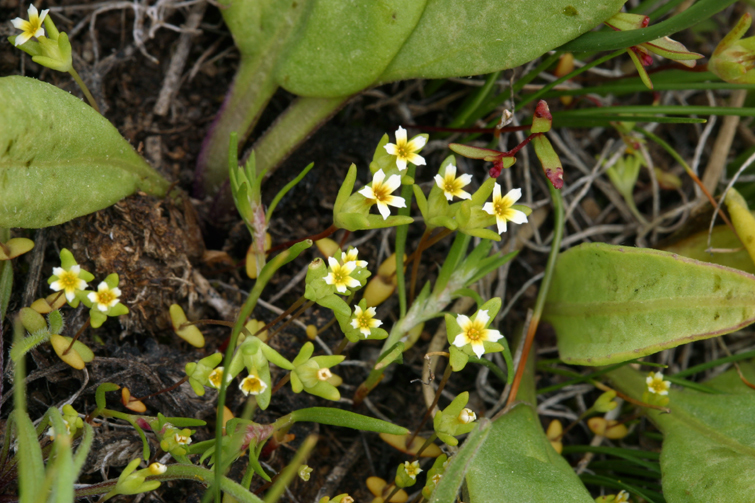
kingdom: Plantae
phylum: Tracheophyta
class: Magnoliopsida
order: Ericales
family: Polemoniaceae
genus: Gymnosteris
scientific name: Gymnosteris parvula
